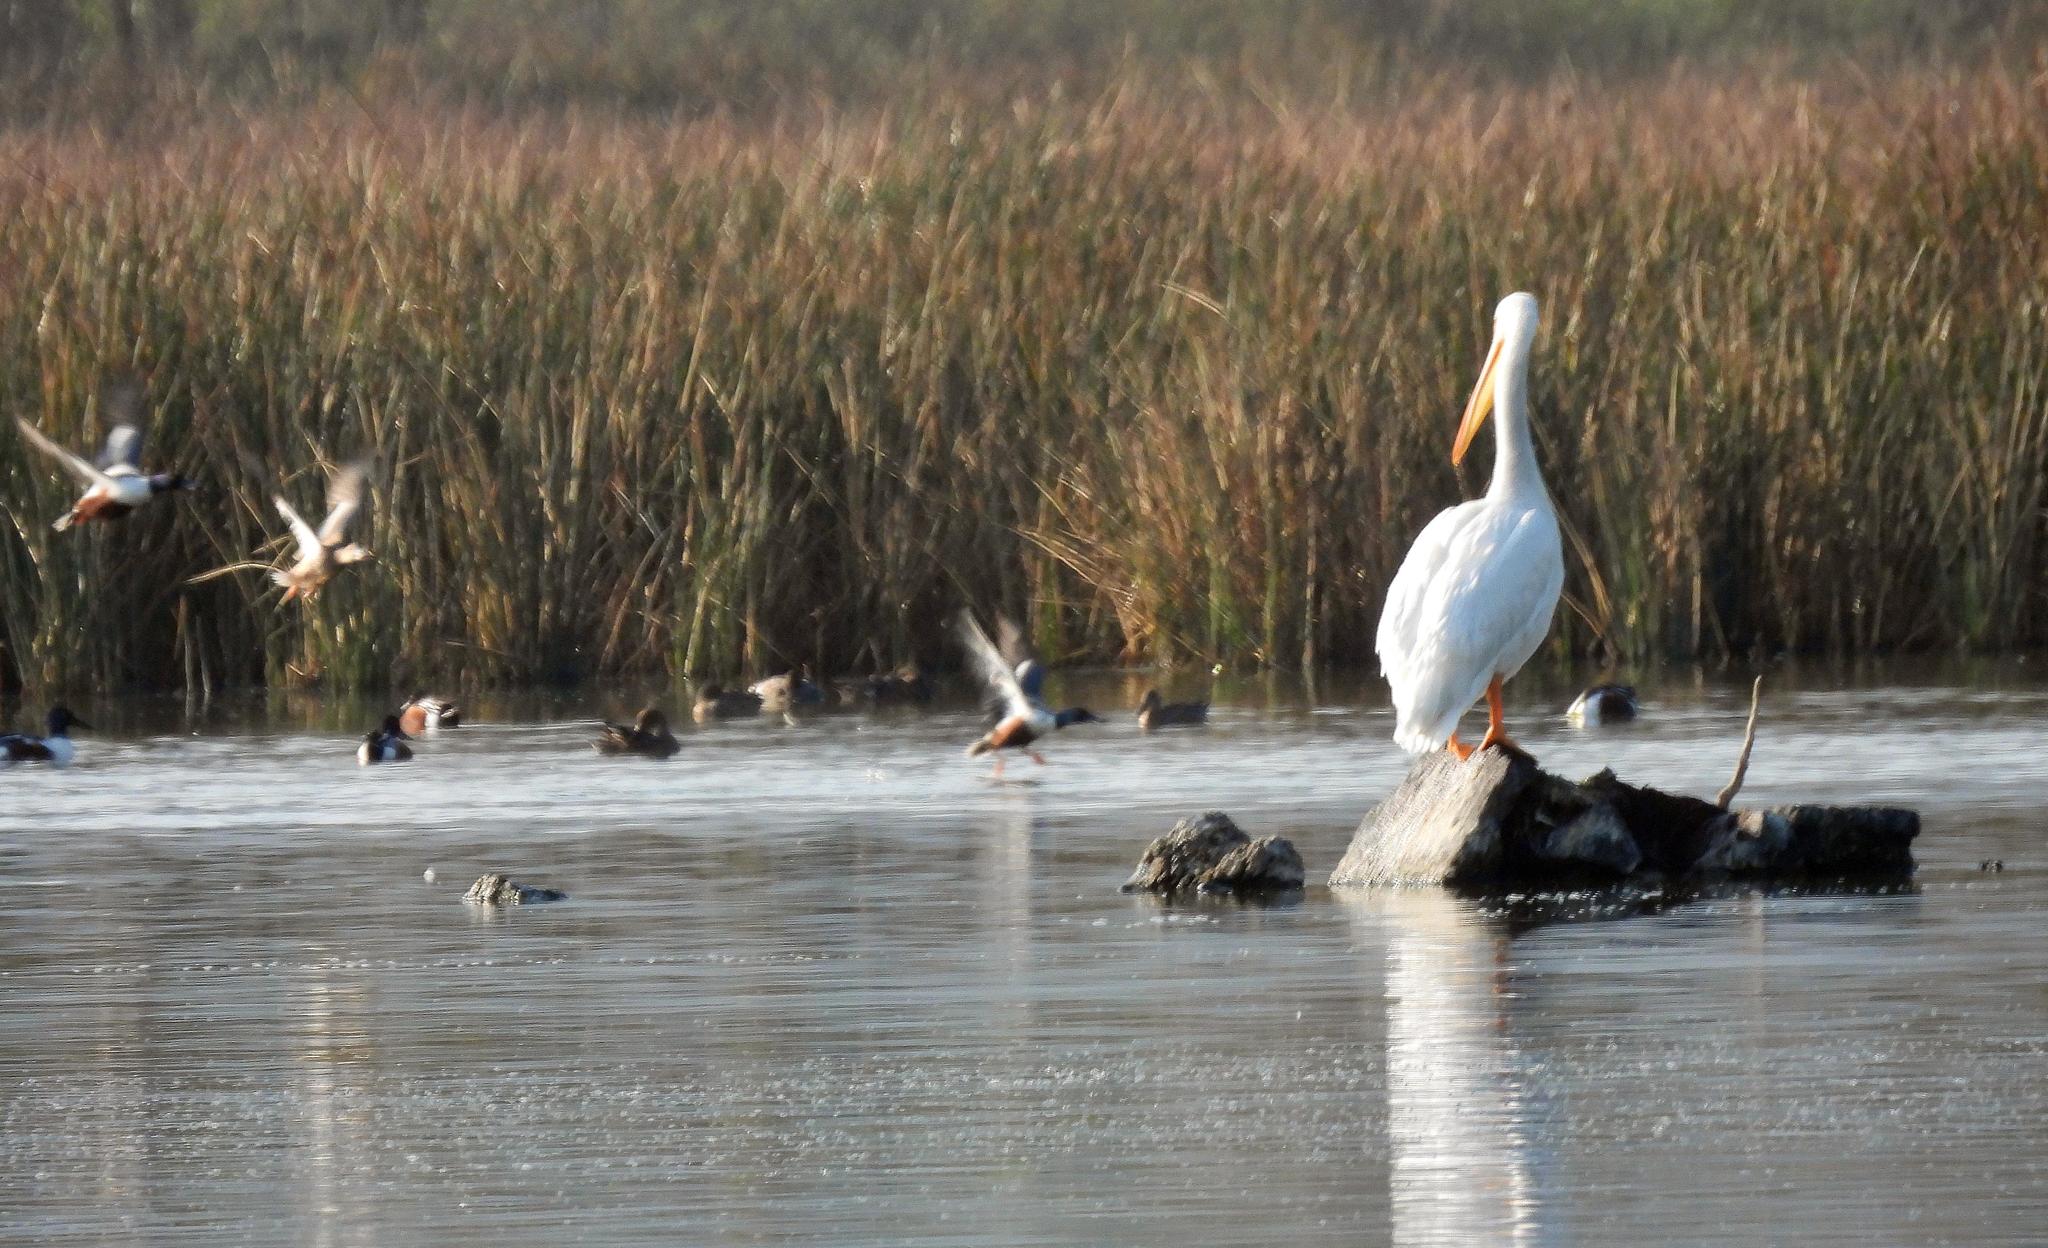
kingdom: Animalia
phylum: Chordata
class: Aves
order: Pelecaniformes
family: Pelecanidae
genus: Pelecanus
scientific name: Pelecanus erythrorhynchos
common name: American white pelican
